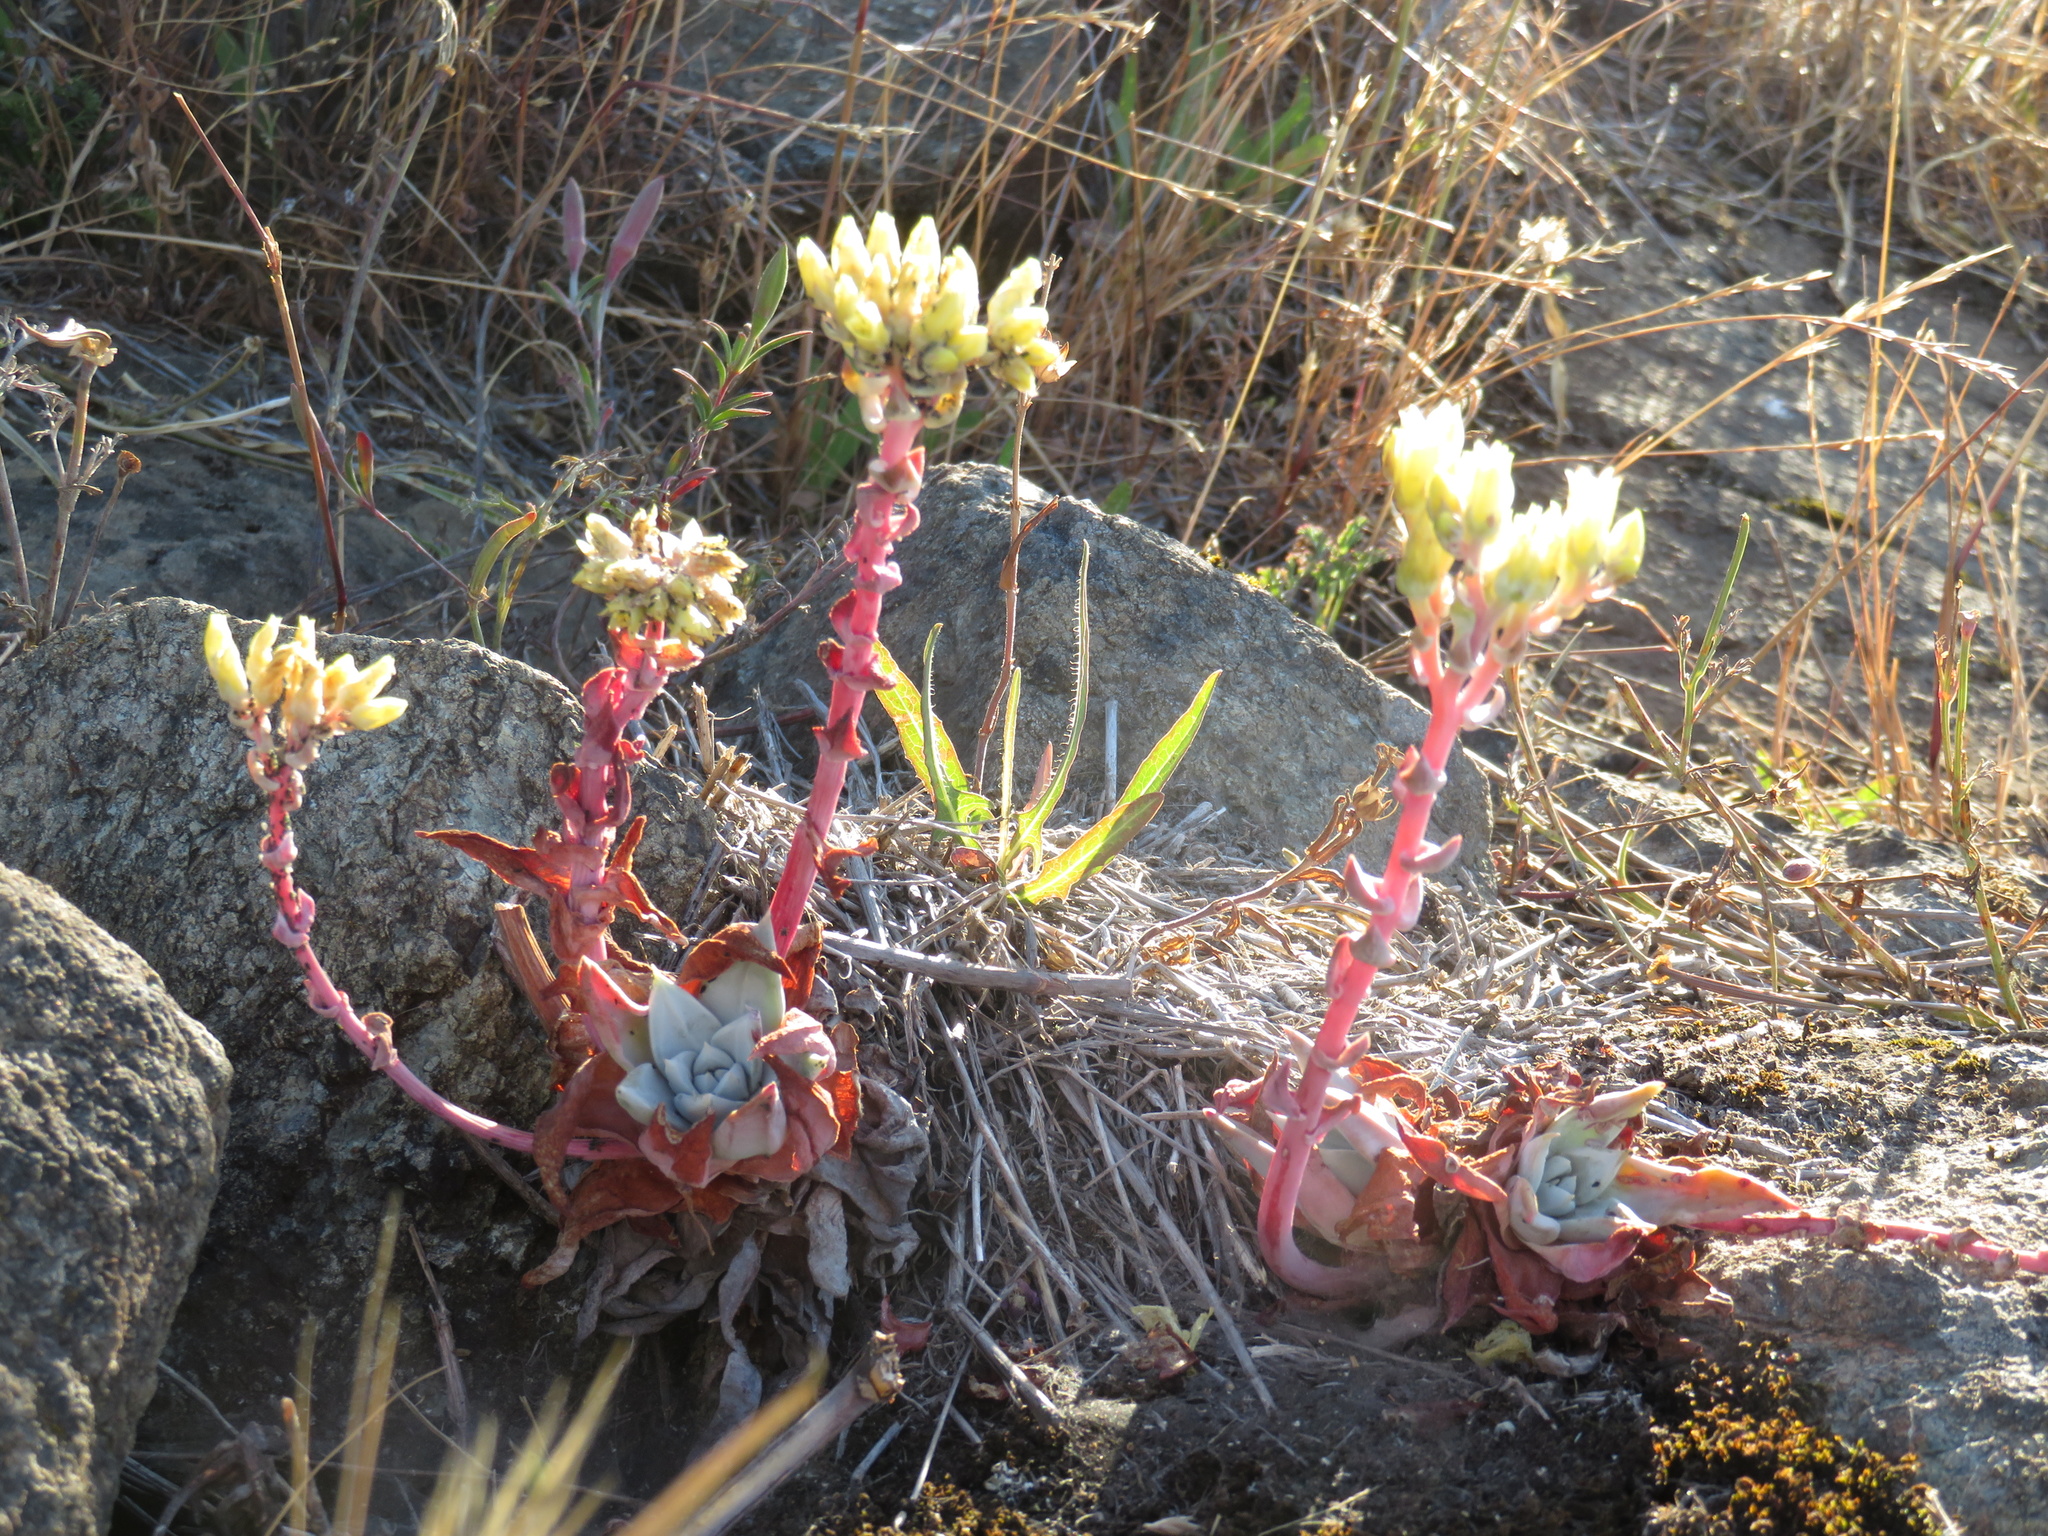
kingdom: Plantae
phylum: Tracheophyta
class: Magnoliopsida
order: Saxifragales
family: Crassulaceae
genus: Dudleya
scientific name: Dudleya farinosa
